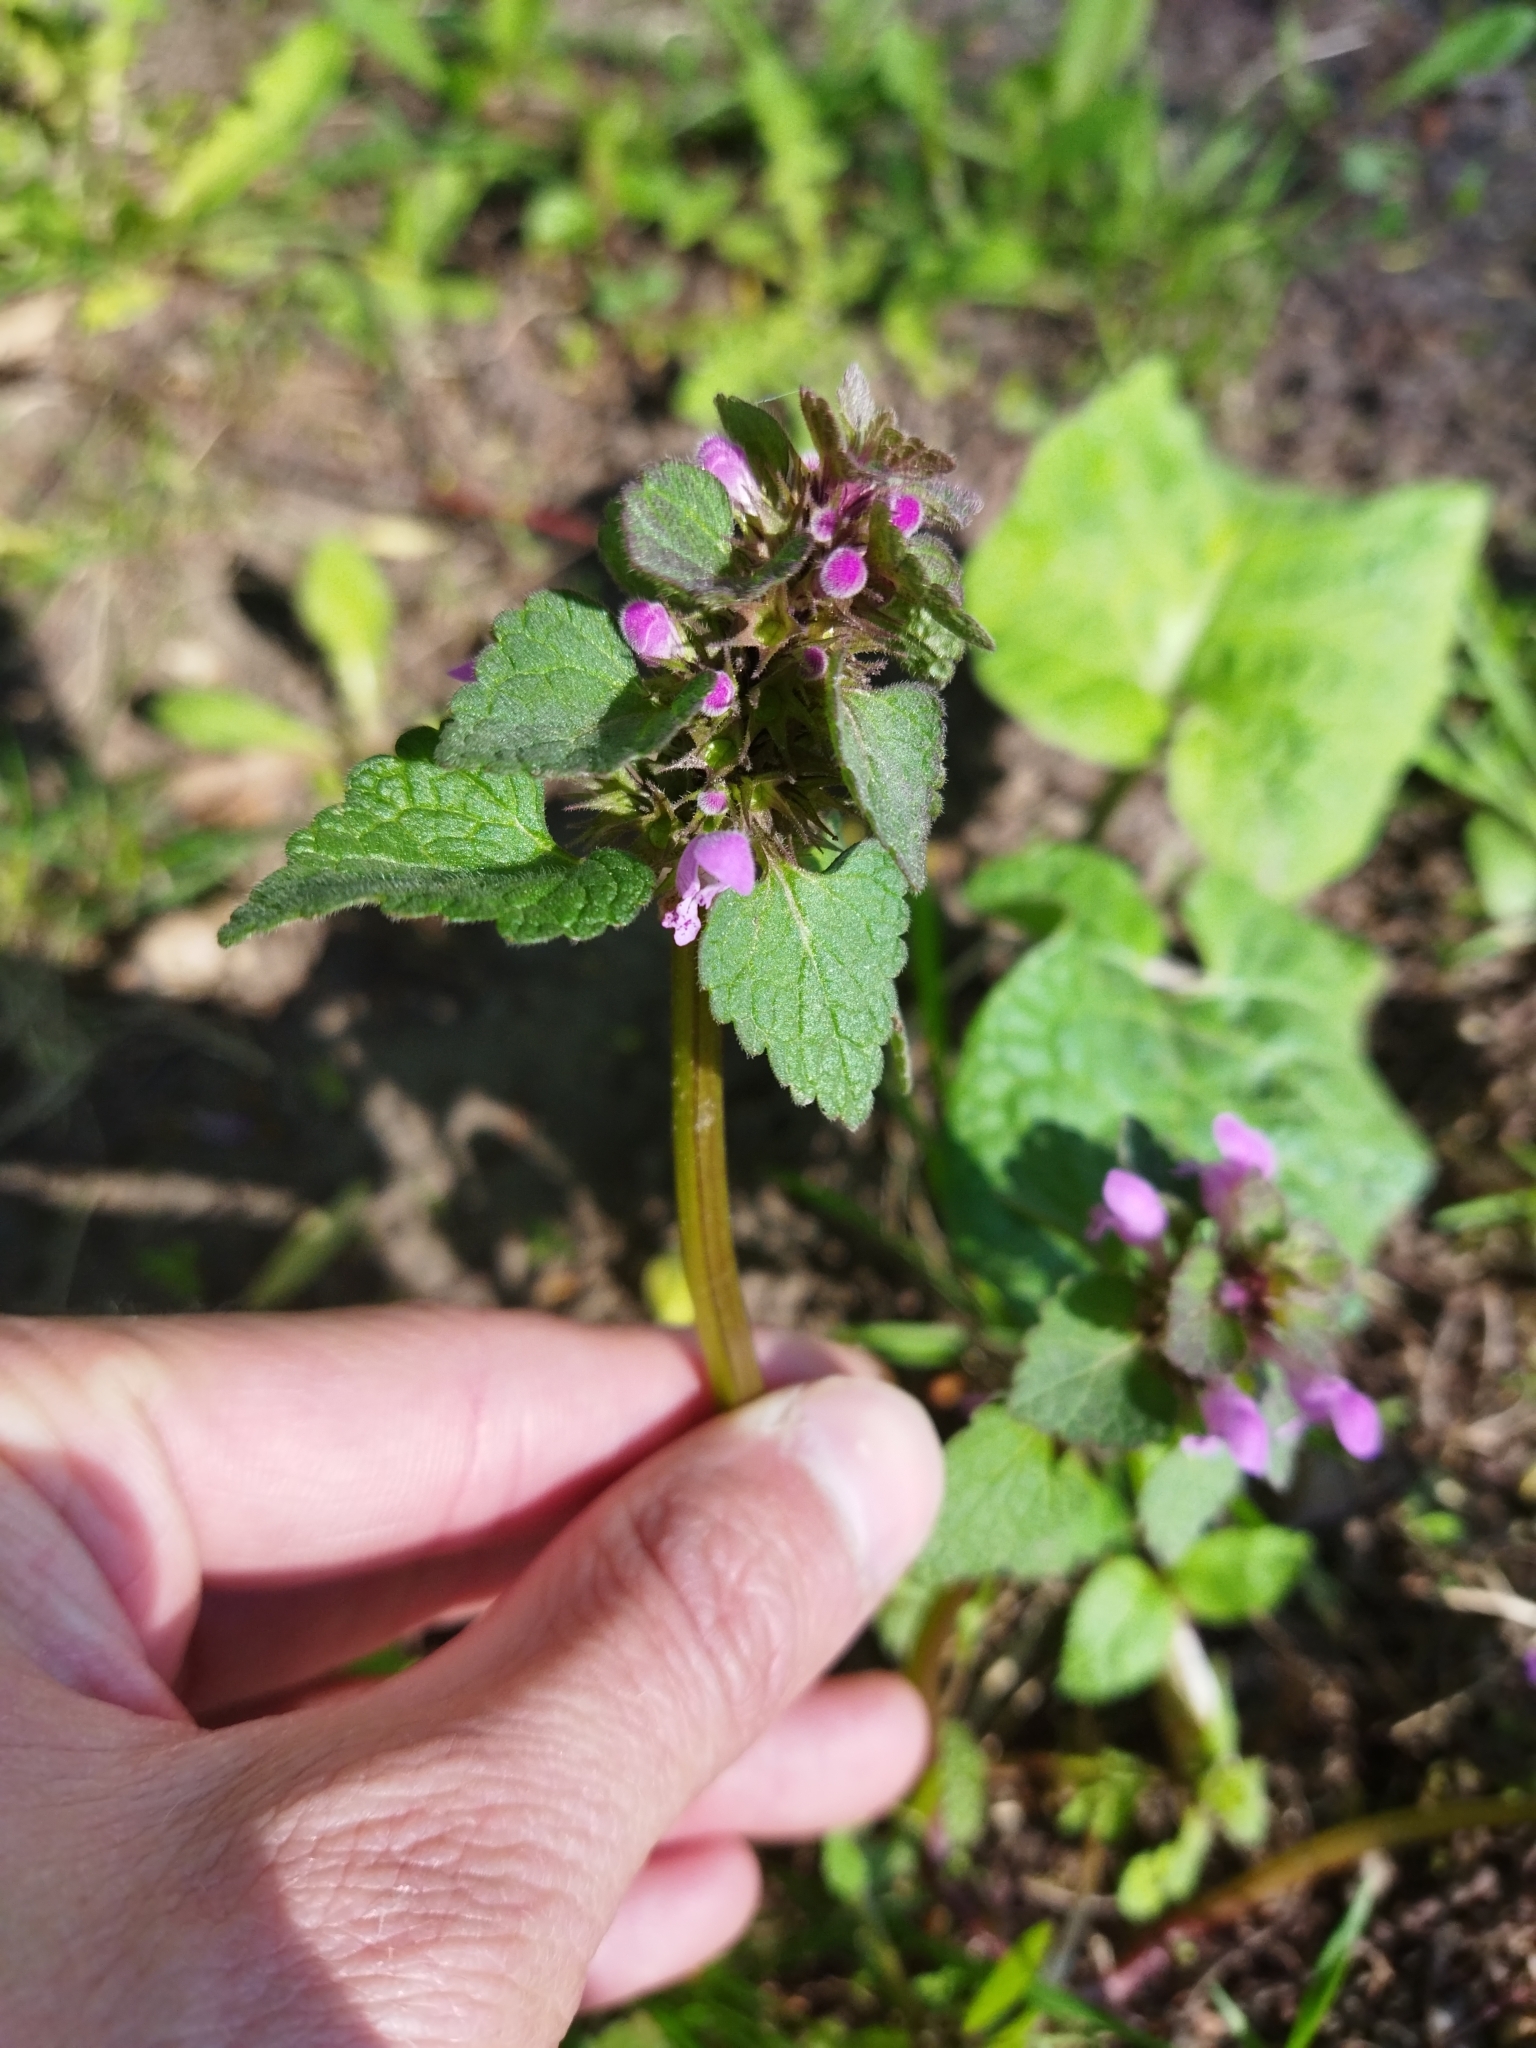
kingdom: Plantae
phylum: Tracheophyta
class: Magnoliopsida
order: Lamiales
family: Lamiaceae
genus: Lamium
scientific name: Lamium purpureum
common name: Red dead-nettle
